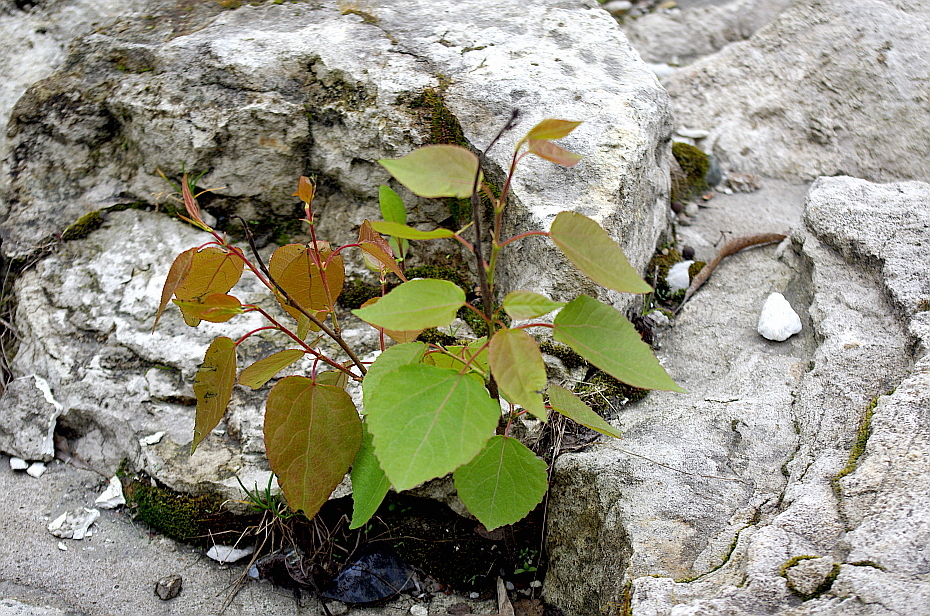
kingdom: Plantae
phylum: Tracheophyta
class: Magnoliopsida
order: Malpighiales
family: Salicaceae
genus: Populus
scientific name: Populus tremula
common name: European aspen
